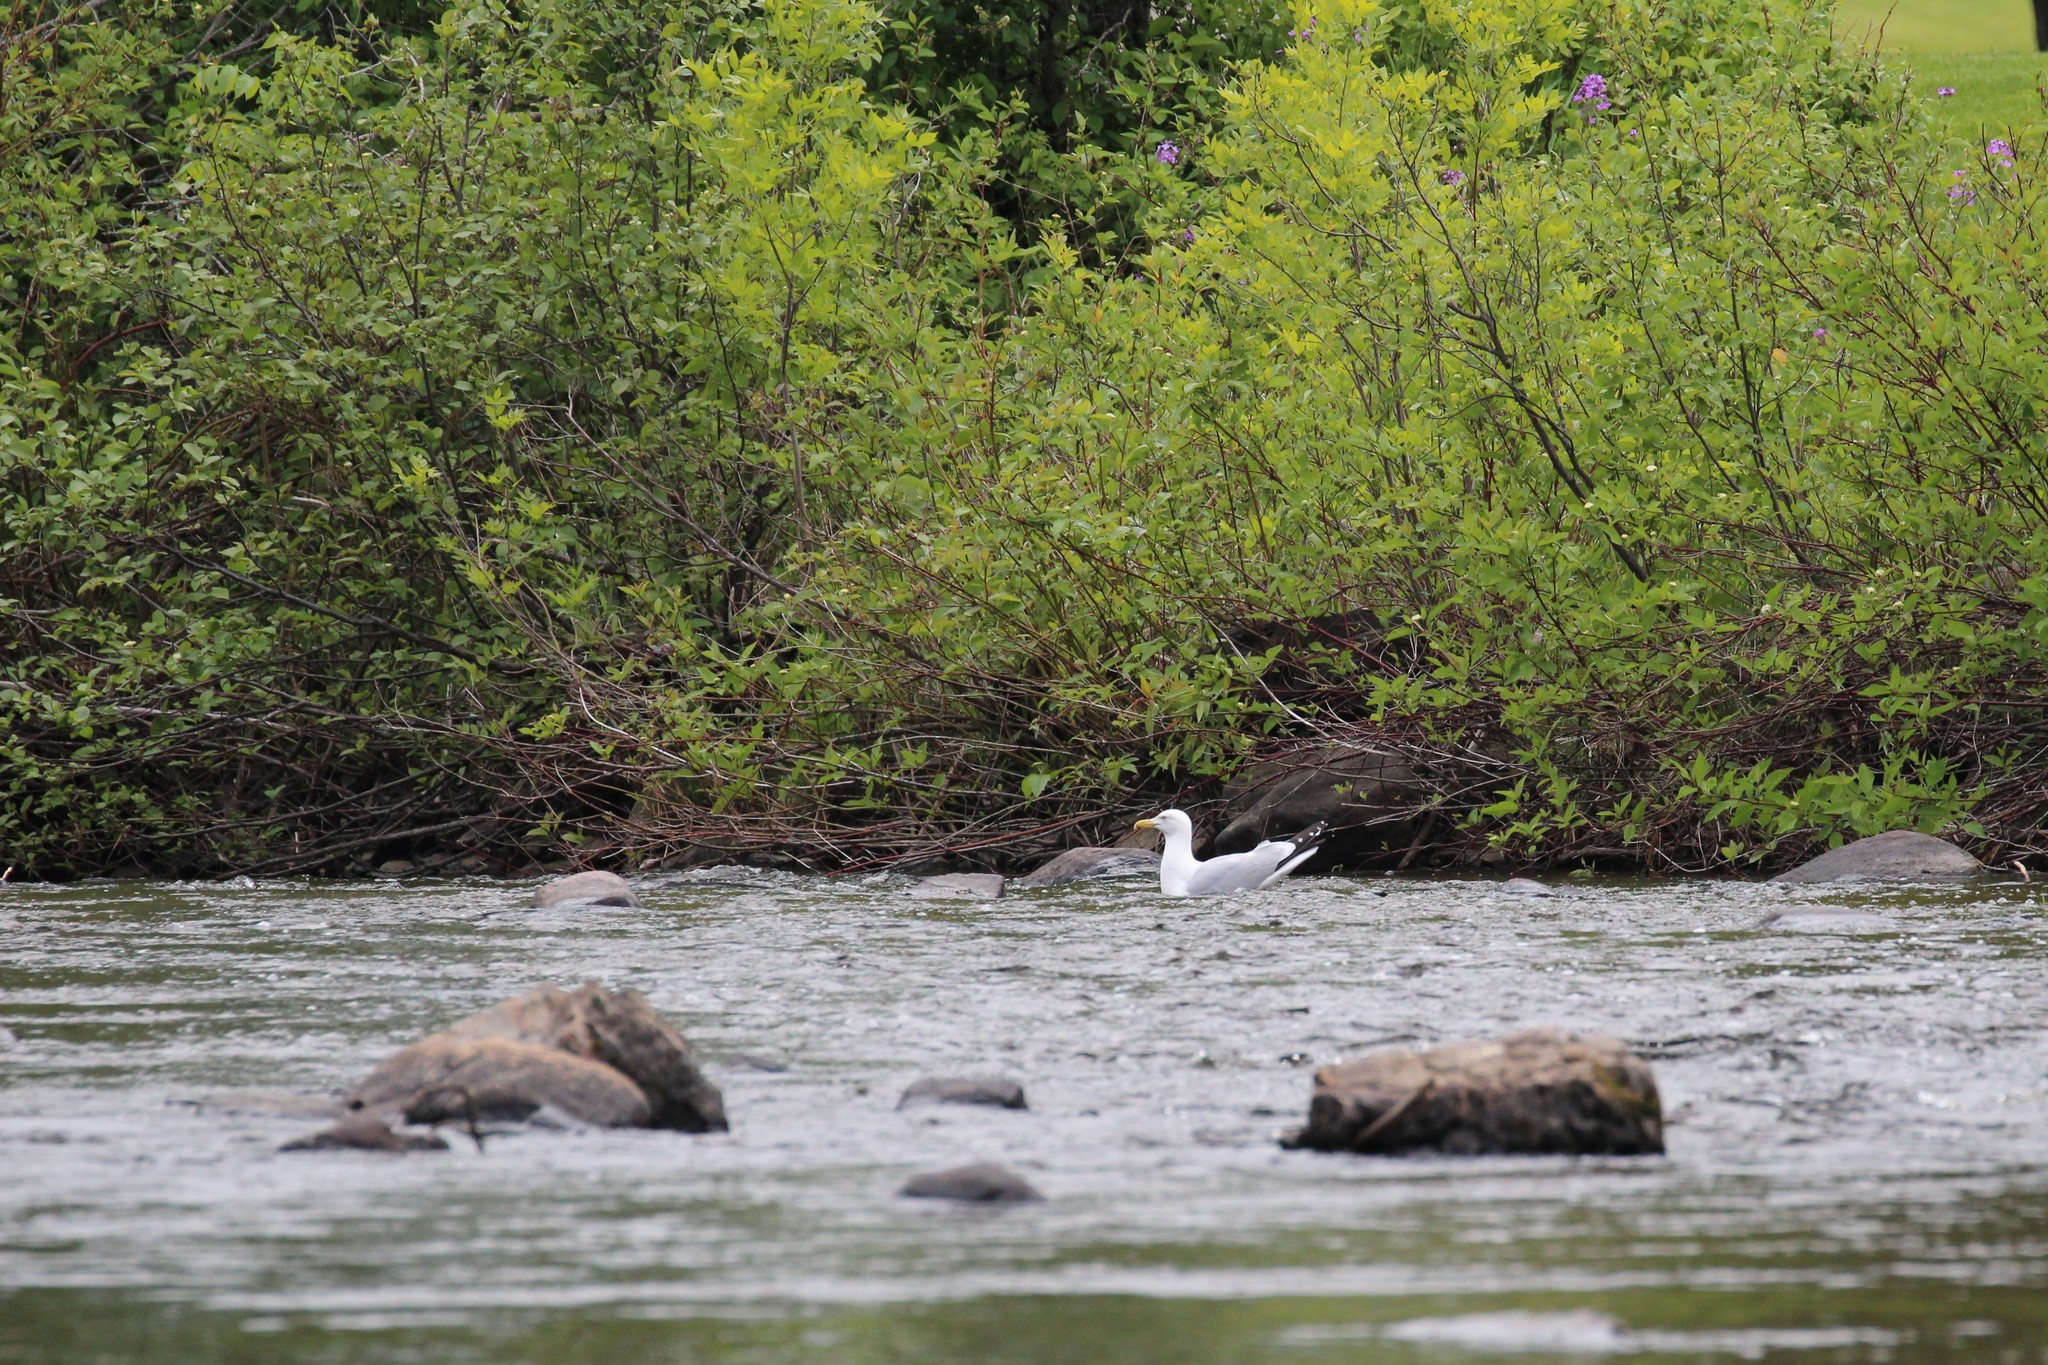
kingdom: Animalia
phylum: Chordata
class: Aves
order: Charadriiformes
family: Laridae
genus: Larus
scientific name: Larus argentatus
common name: Herring gull
